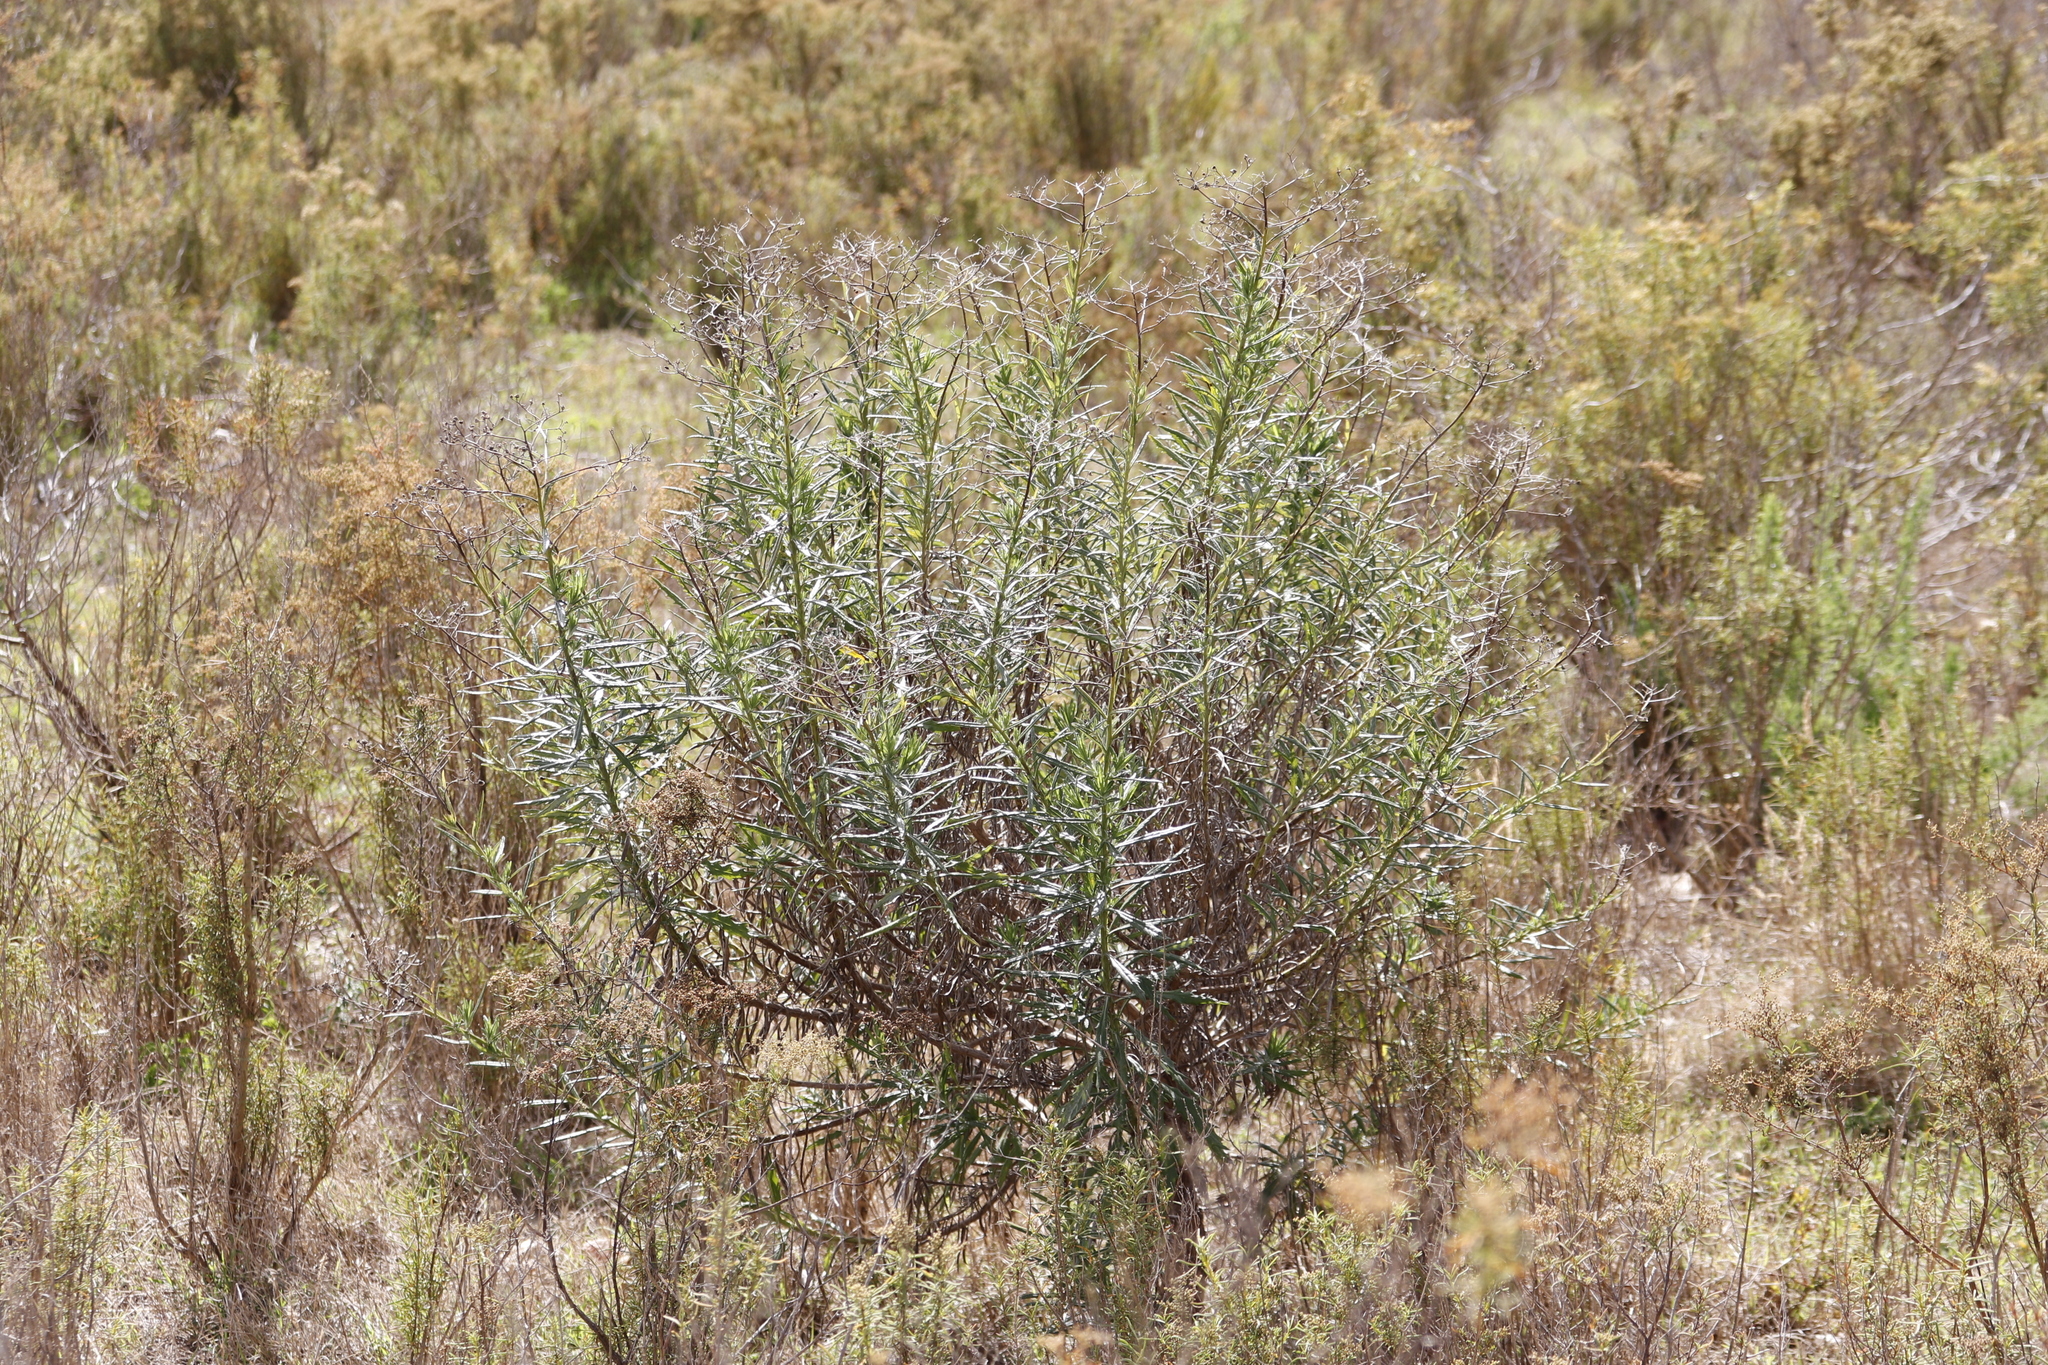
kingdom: Plantae
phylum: Tracheophyta
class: Magnoliopsida
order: Asterales
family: Asteraceae
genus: Senecio
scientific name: Senecio pterophorus
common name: Shoddy ragwort
